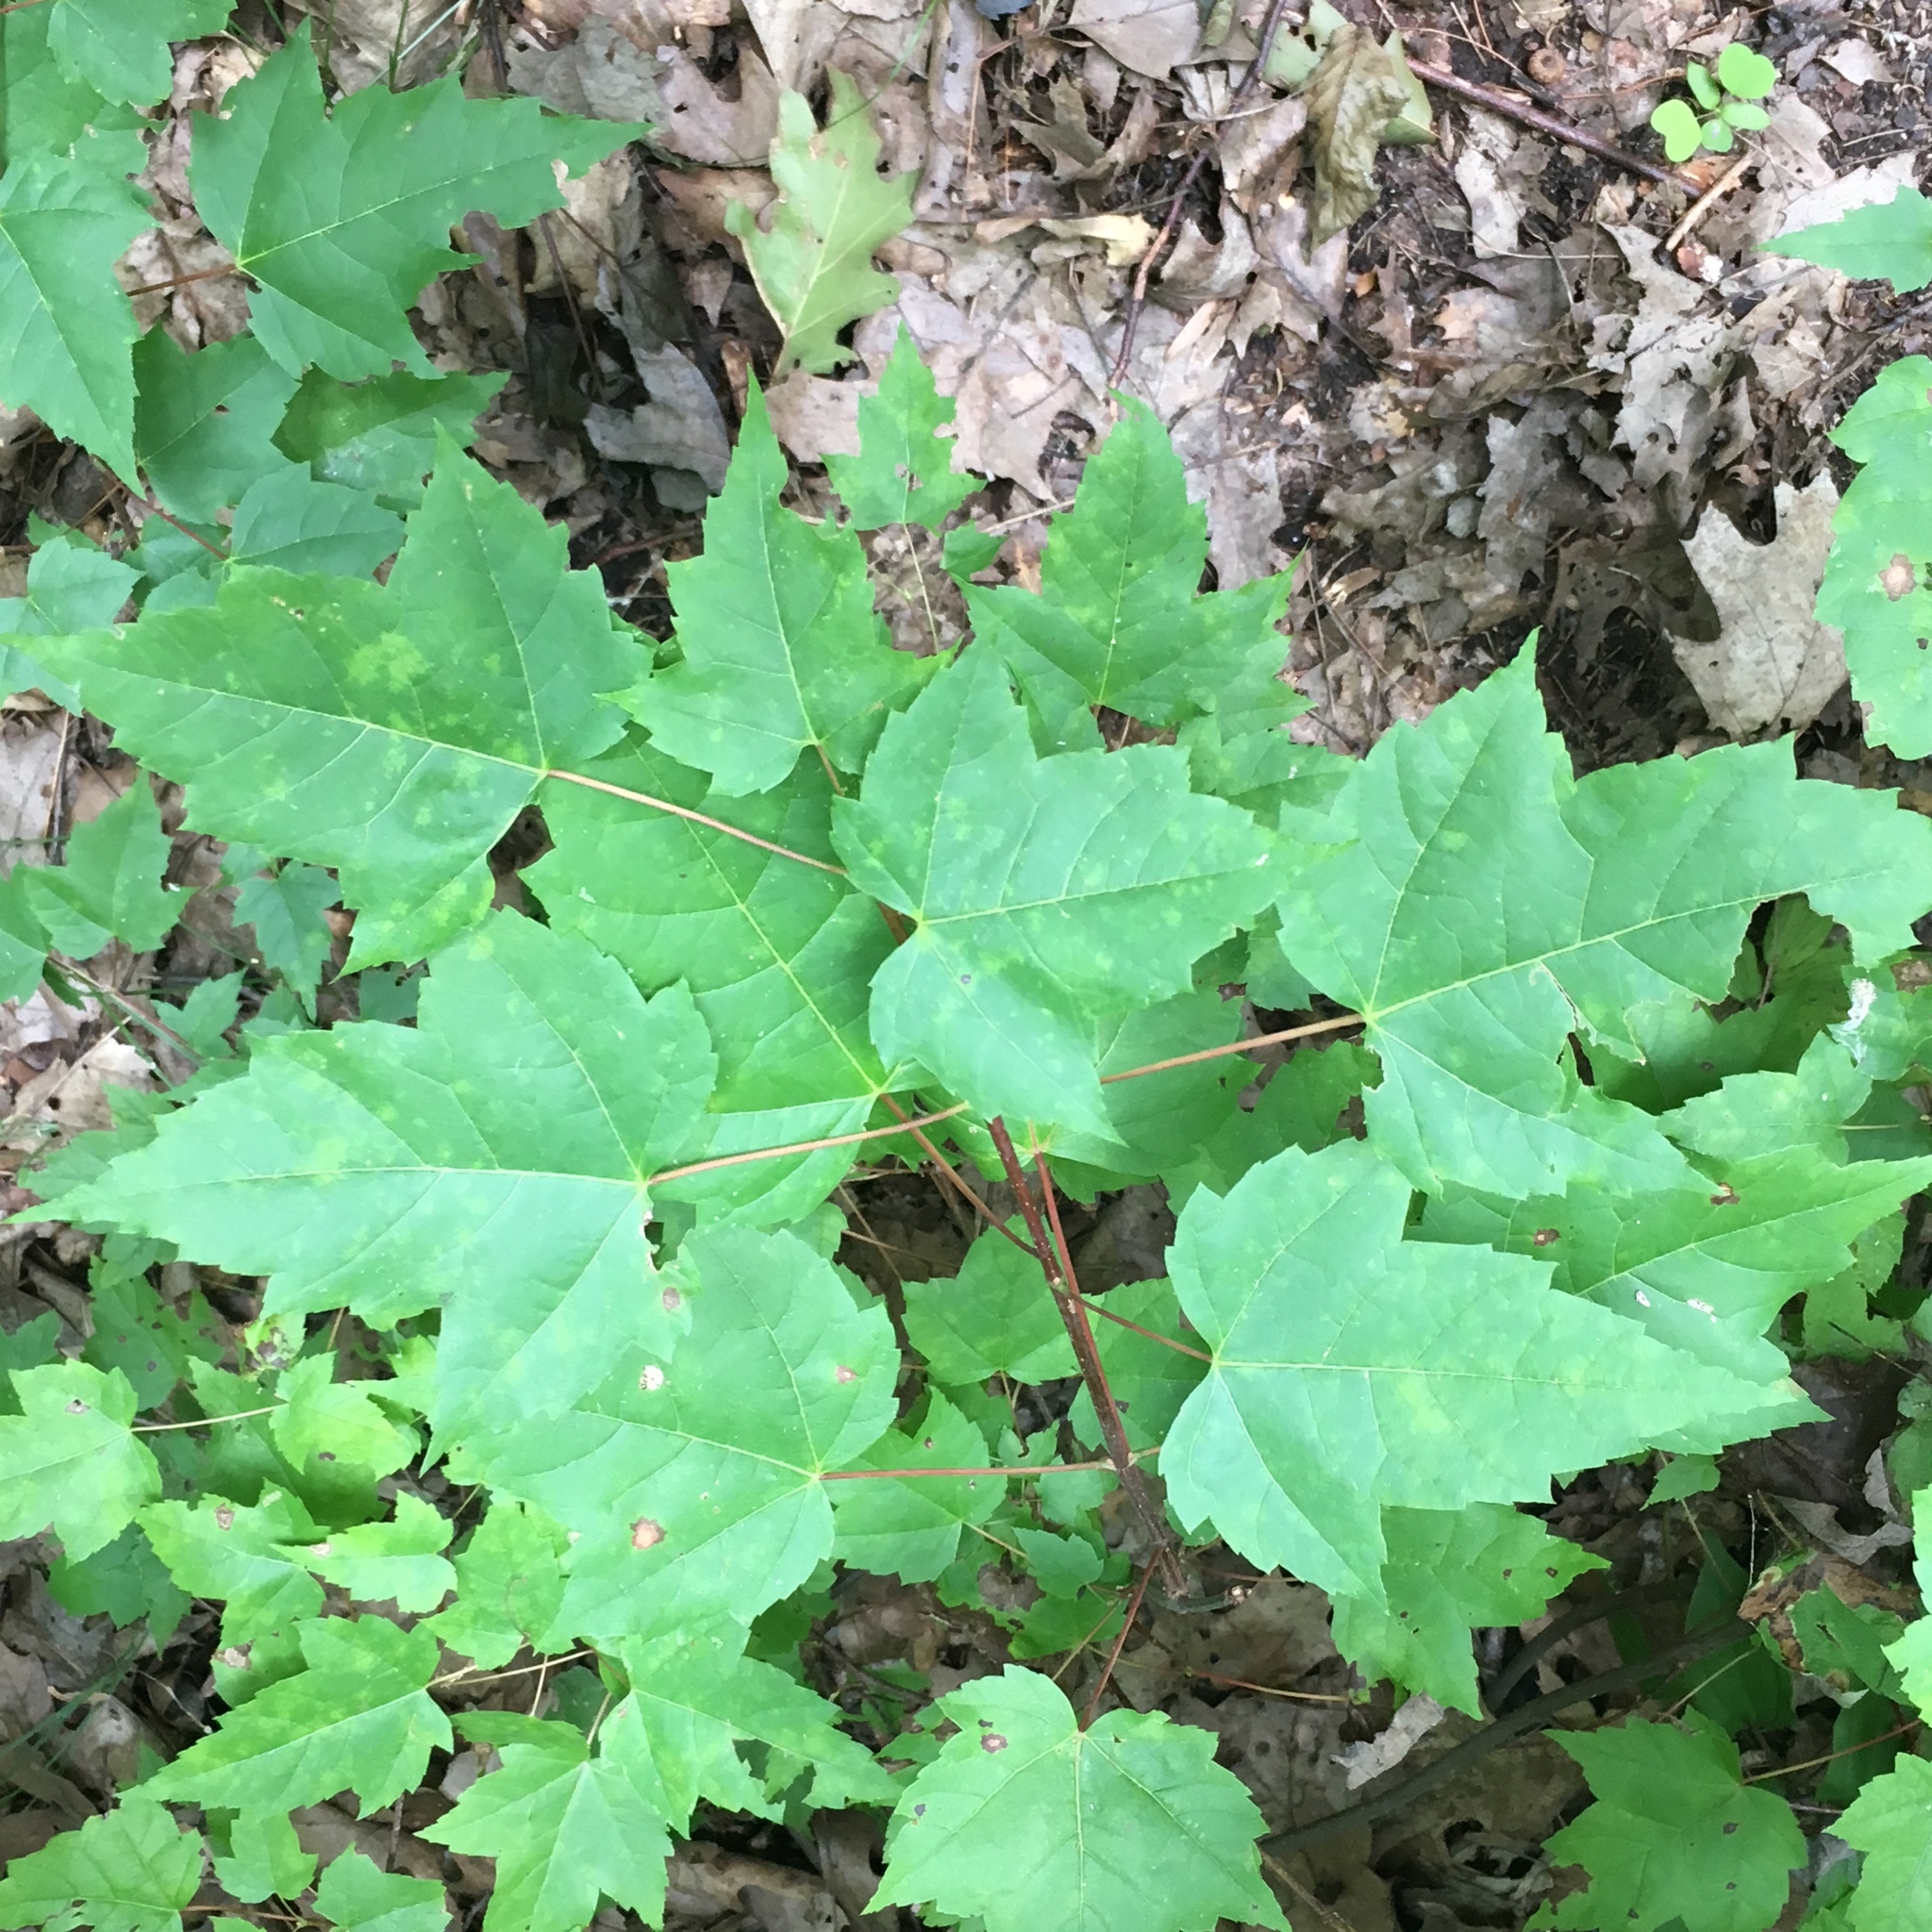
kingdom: Plantae
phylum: Tracheophyta
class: Magnoliopsida
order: Sapindales
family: Sapindaceae
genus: Acer
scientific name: Acer rubrum
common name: Red maple
